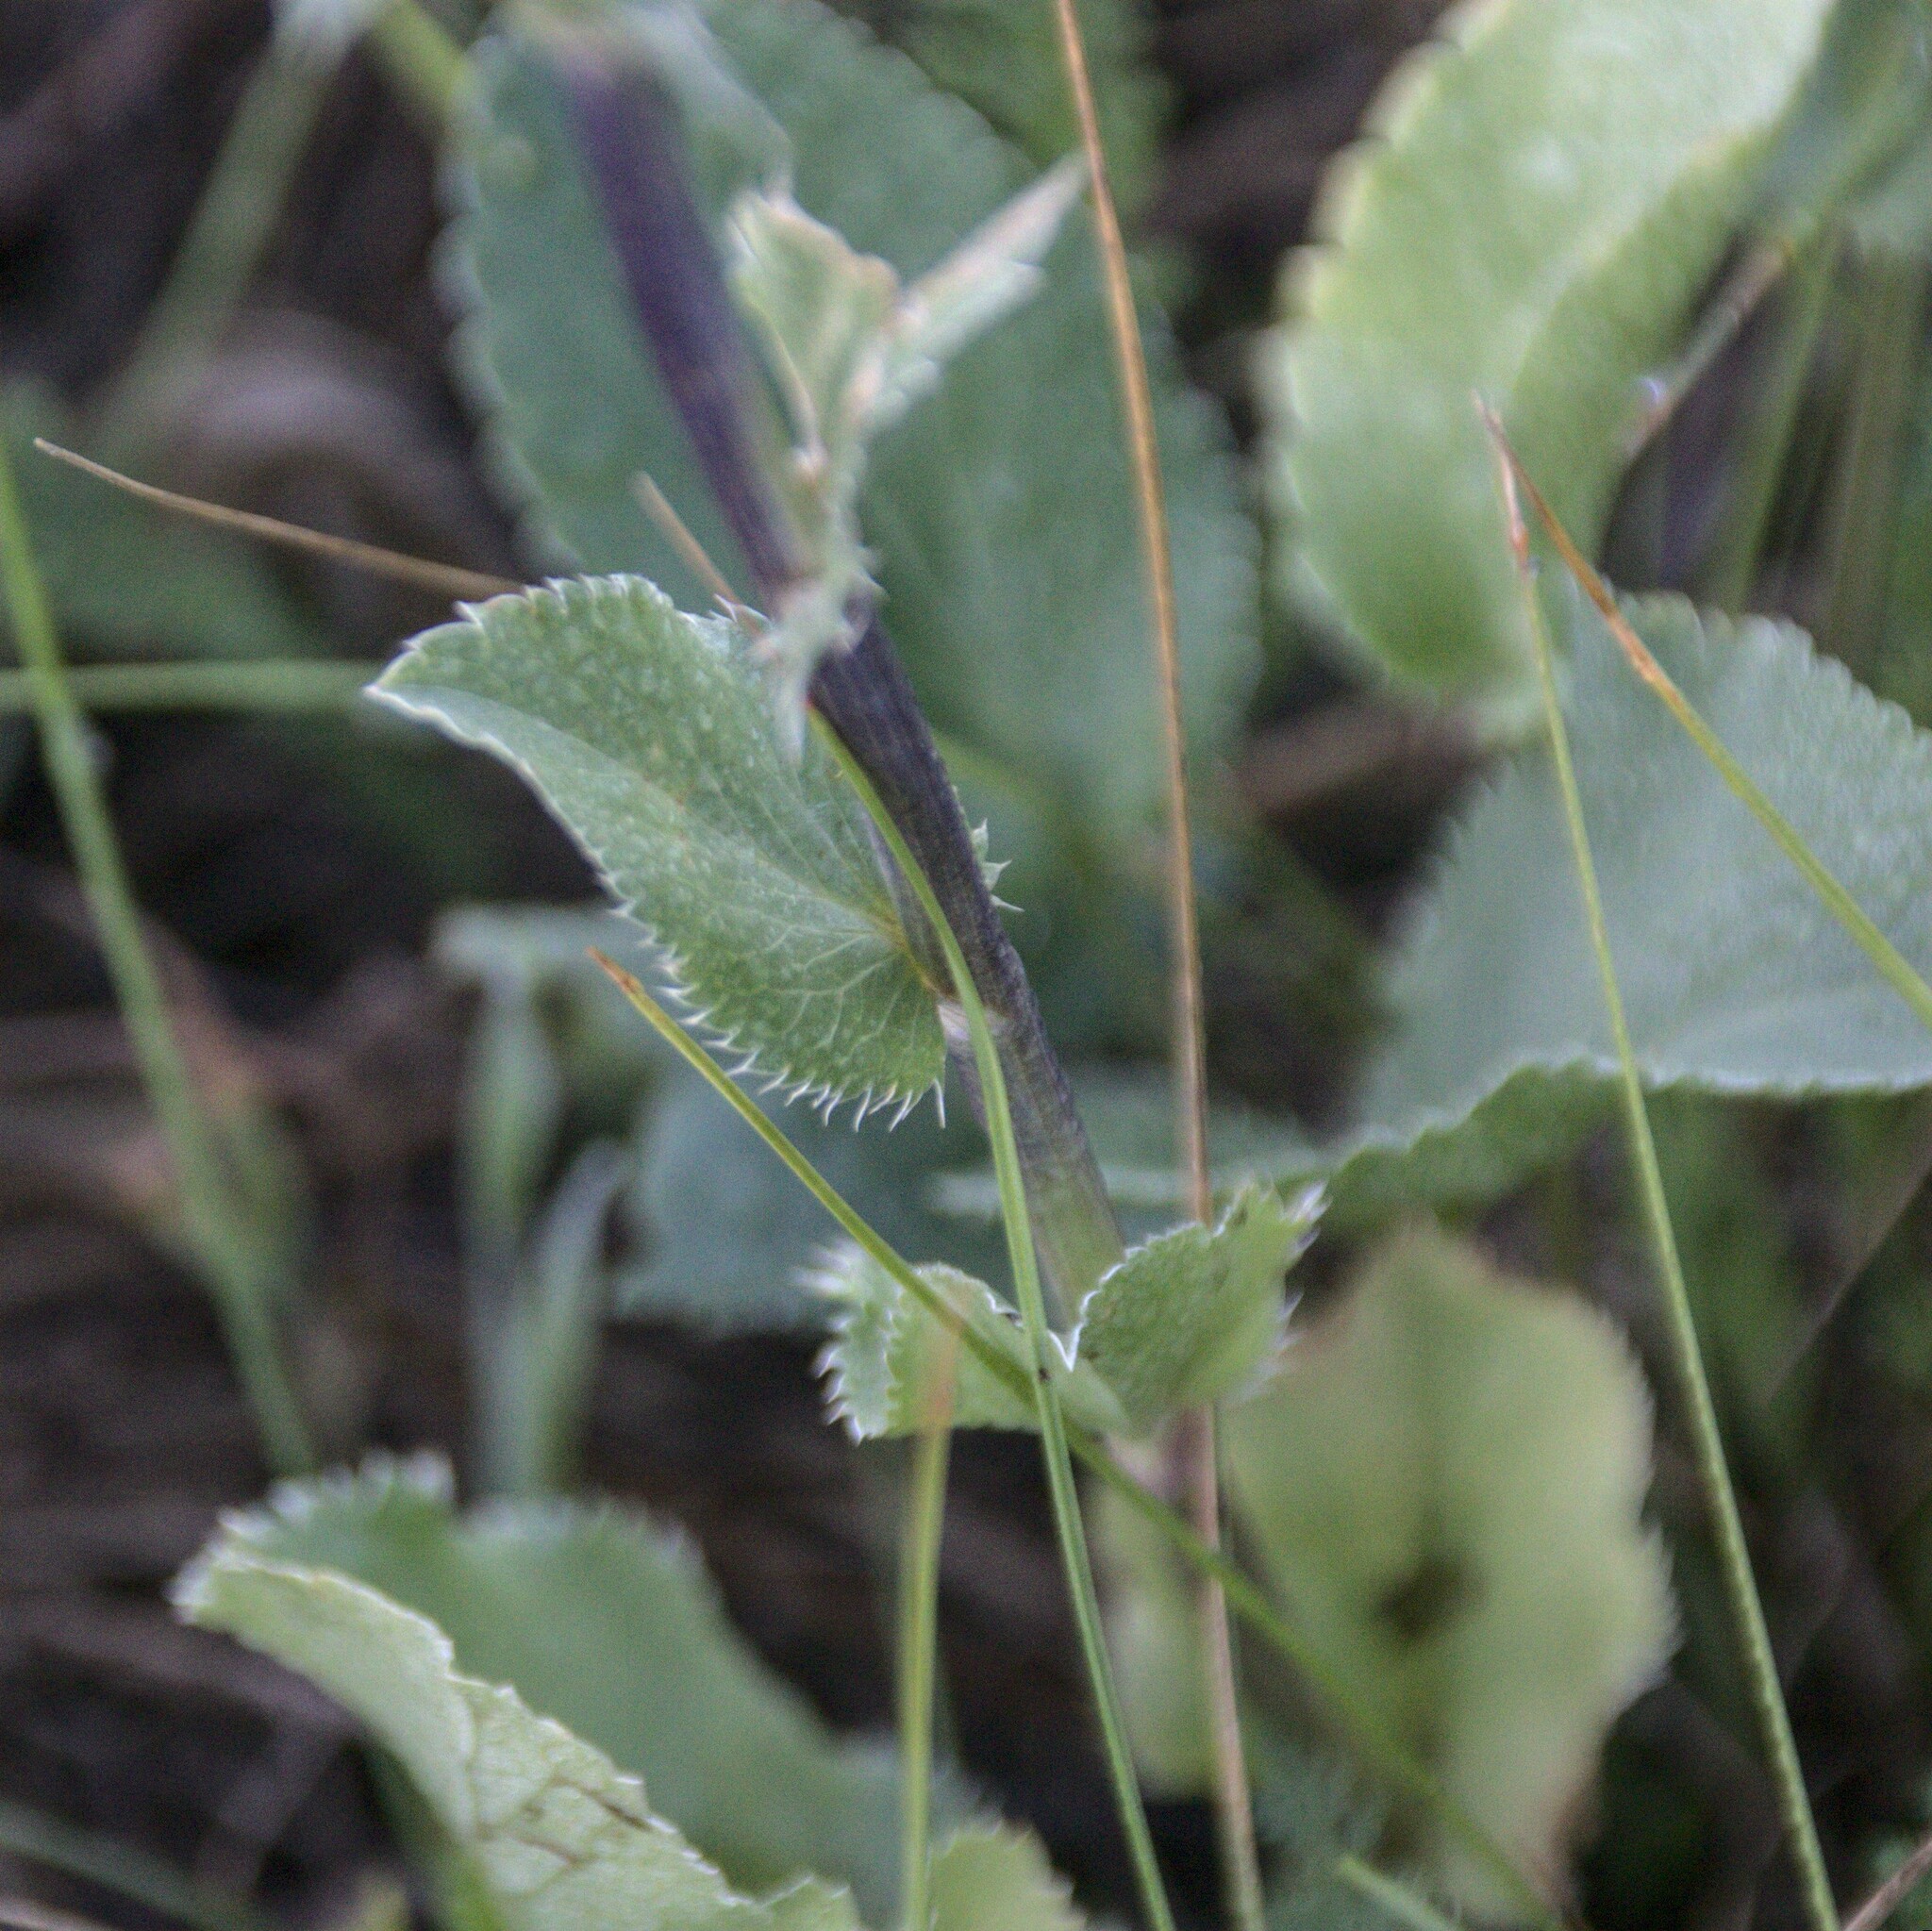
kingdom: Plantae
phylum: Tracheophyta
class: Magnoliopsida
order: Apiales
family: Apiaceae
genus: Eryngium
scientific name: Eryngium planum
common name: Blue eryngo
